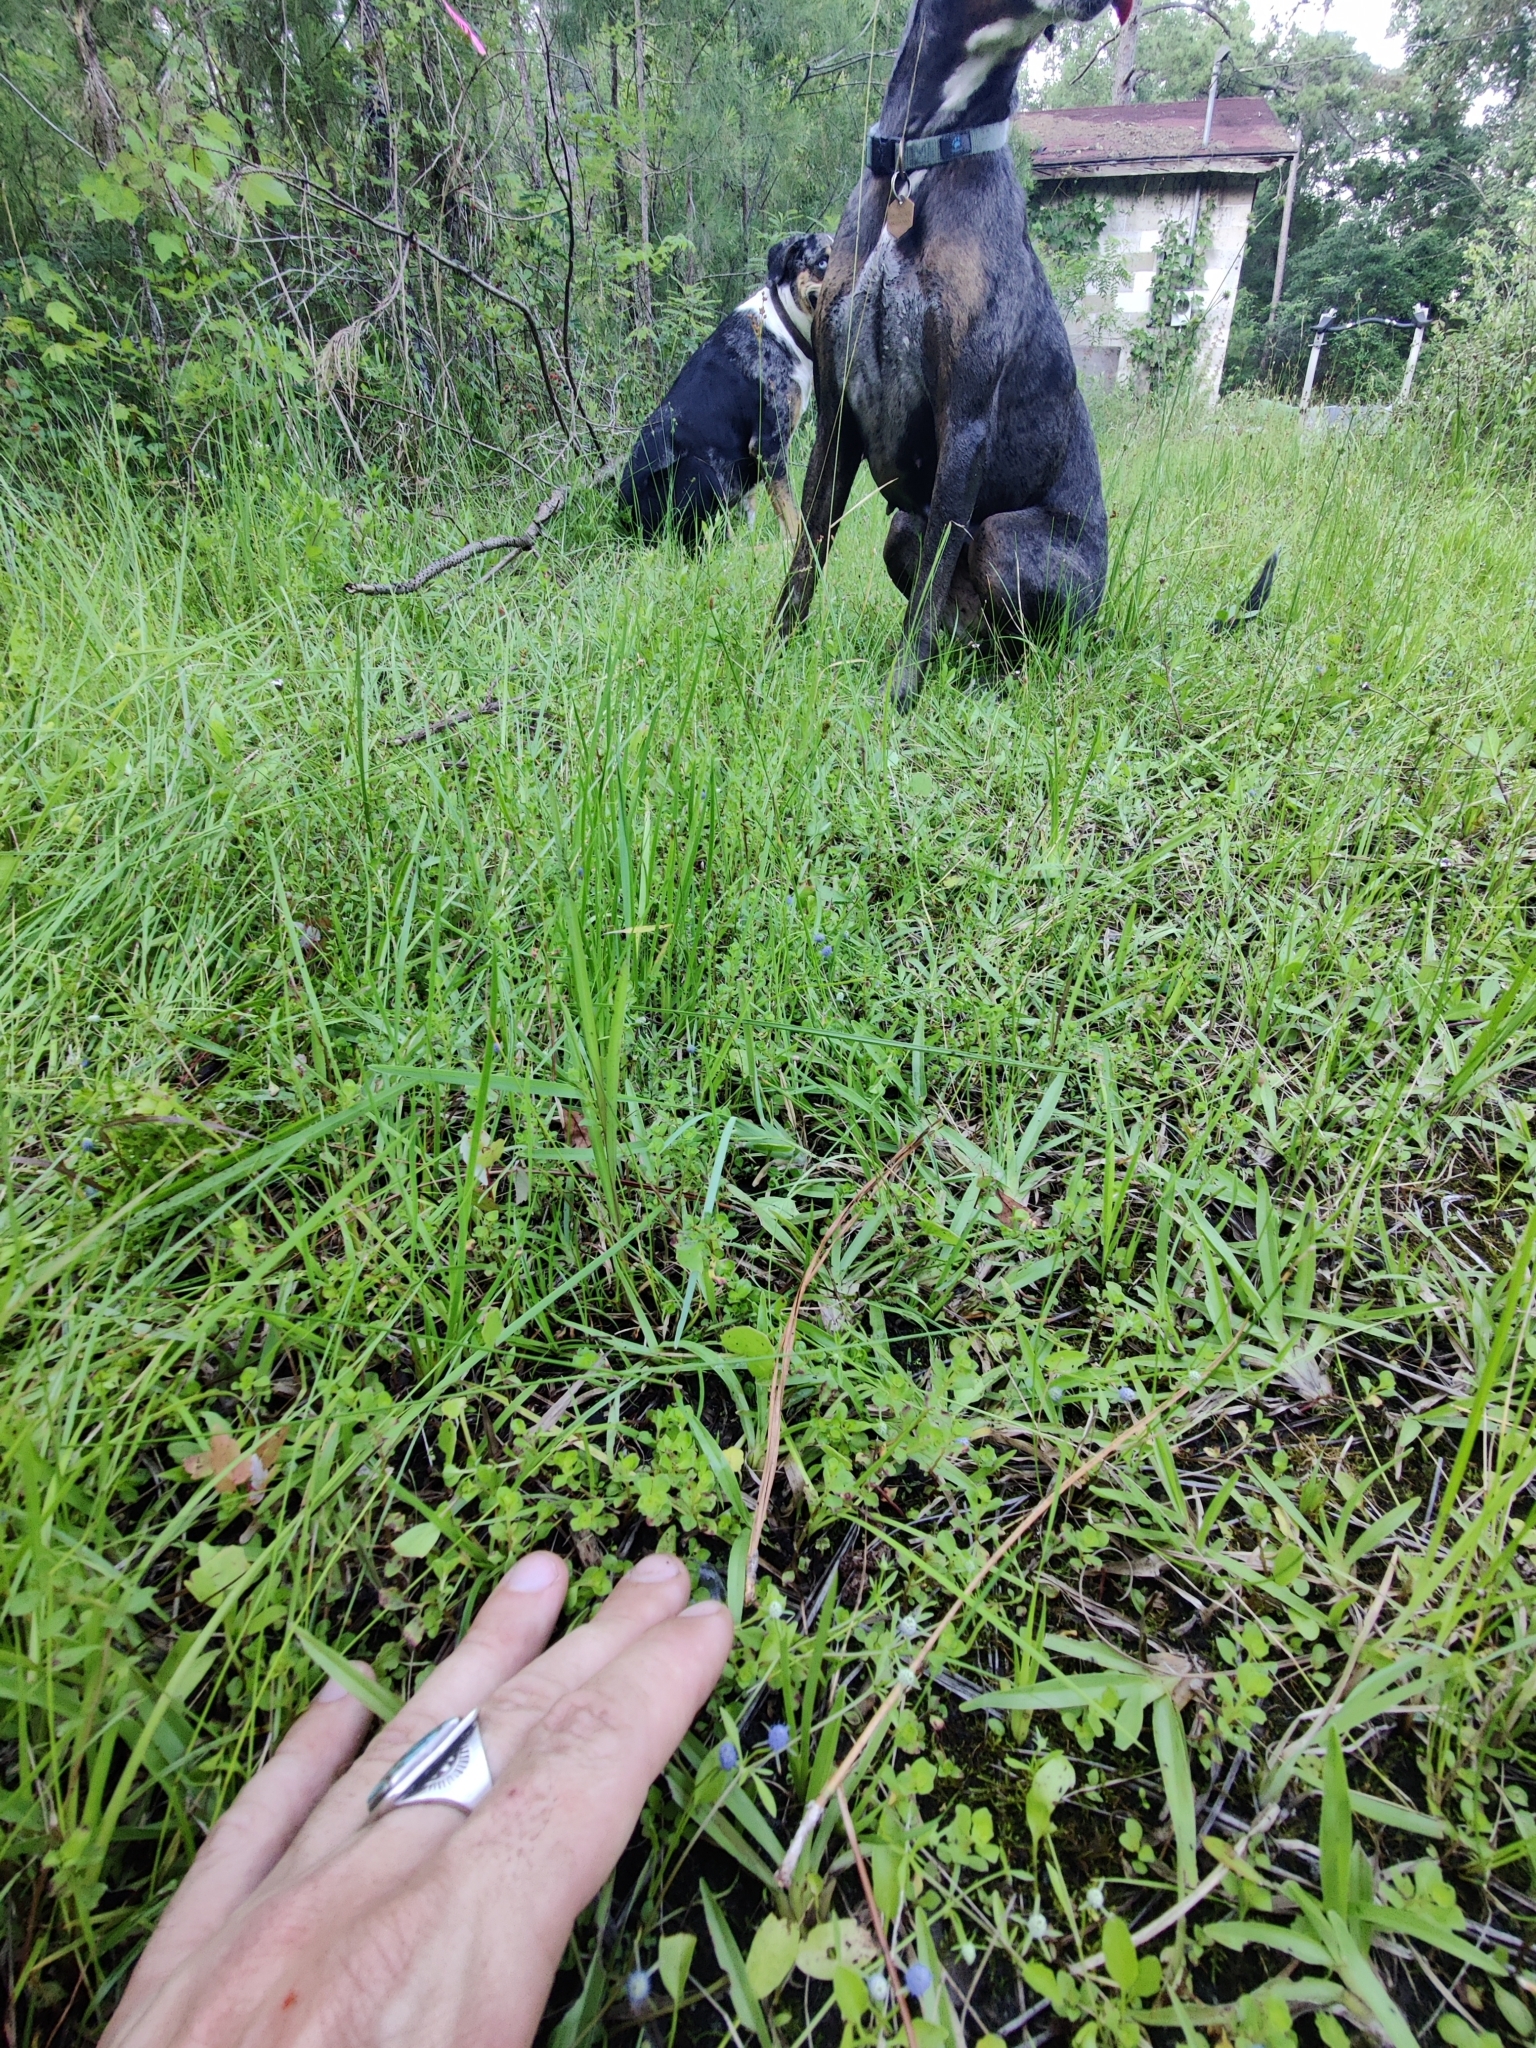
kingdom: Plantae
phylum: Tracheophyta
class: Magnoliopsida
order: Apiales
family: Apiaceae
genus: Eryngium
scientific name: Eryngium prostratum
